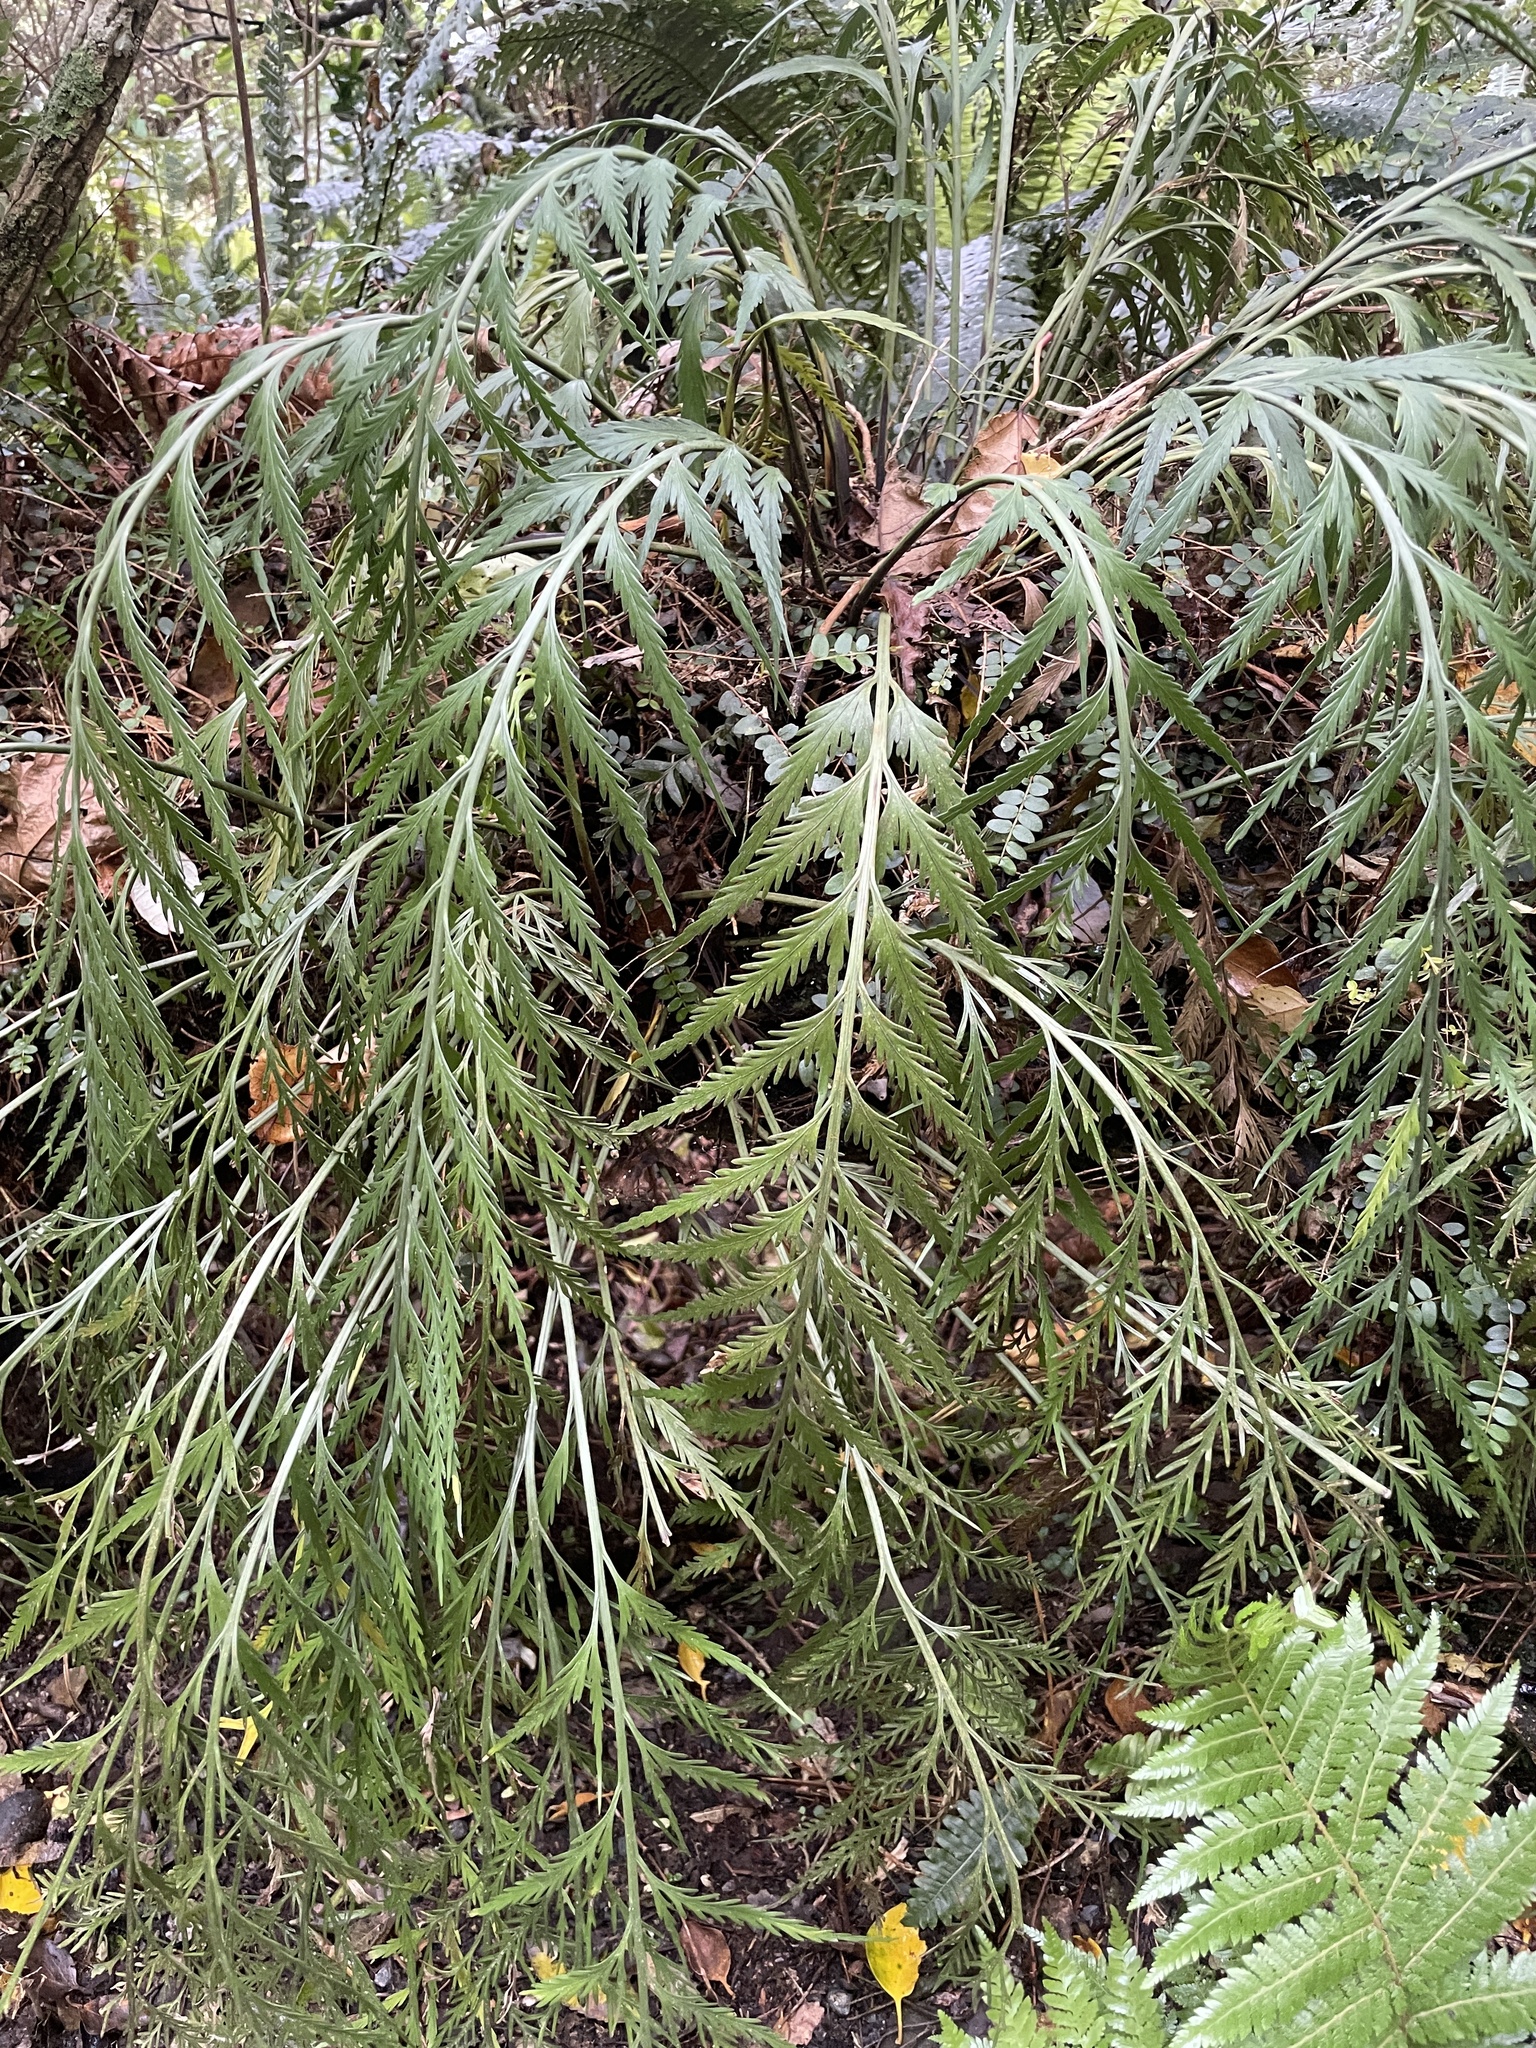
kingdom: Plantae
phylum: Tracheophyta
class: Polypodiopsida
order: Polypodiales
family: Aspleniaceae
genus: Asplenium
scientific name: Asplenium flaccidum
